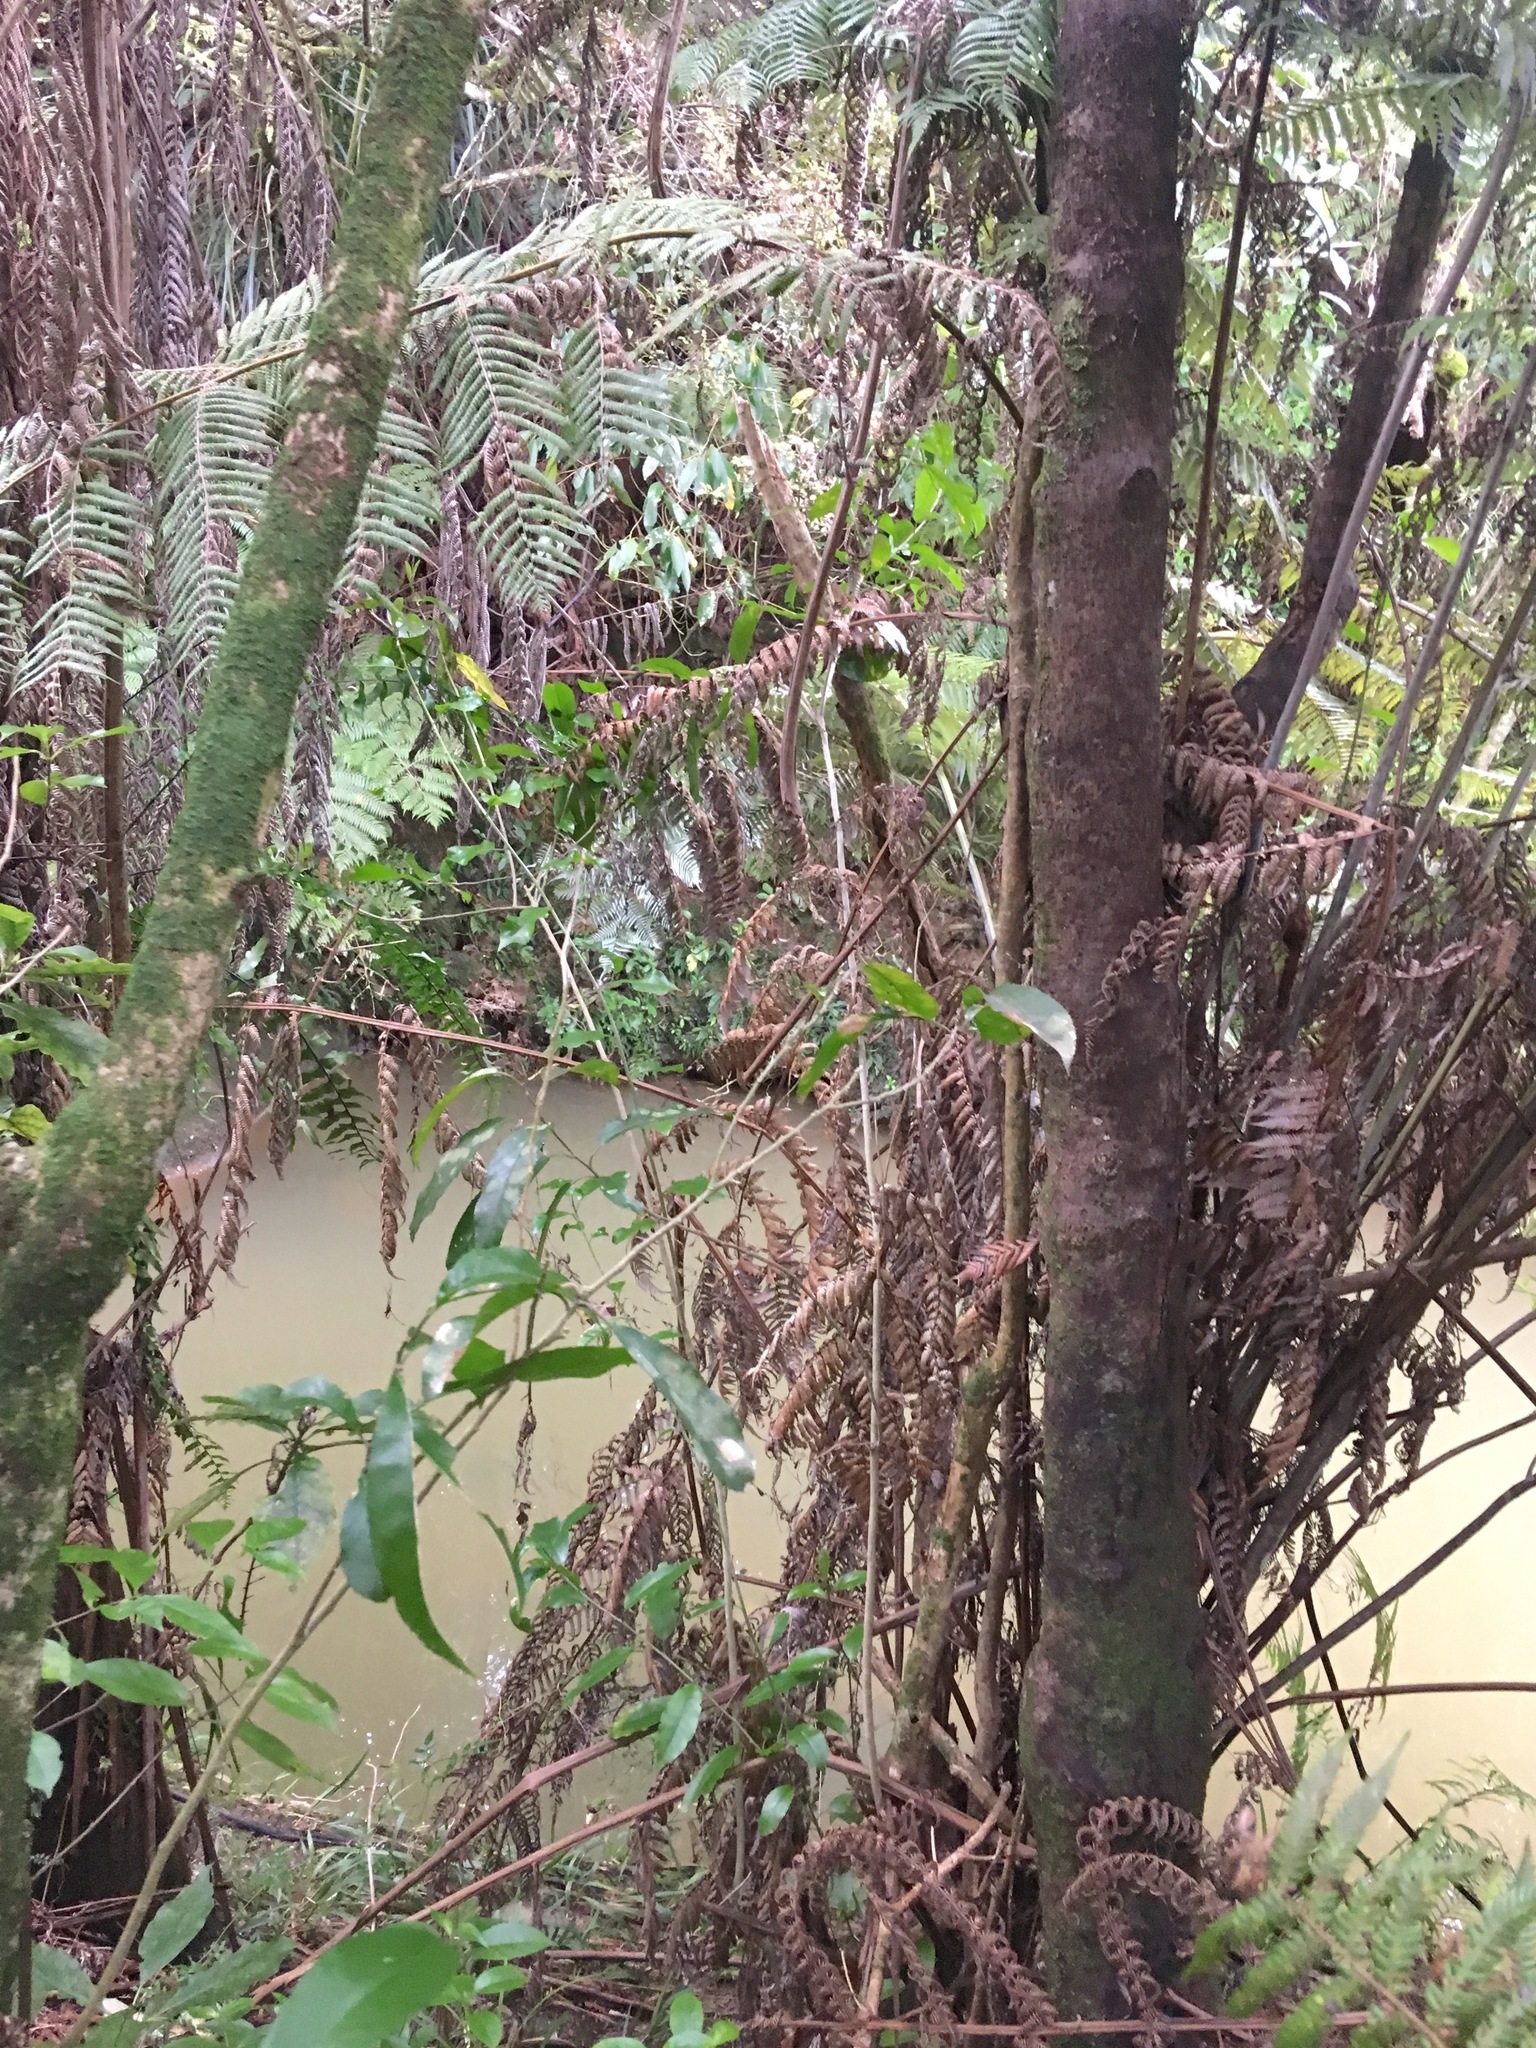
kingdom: Plantae
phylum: Tracheophyta
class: Magnoliopsida
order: Malpighiales
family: Violaceae
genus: Melicytus
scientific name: Melicytus ramiflorus
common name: Mahoe
